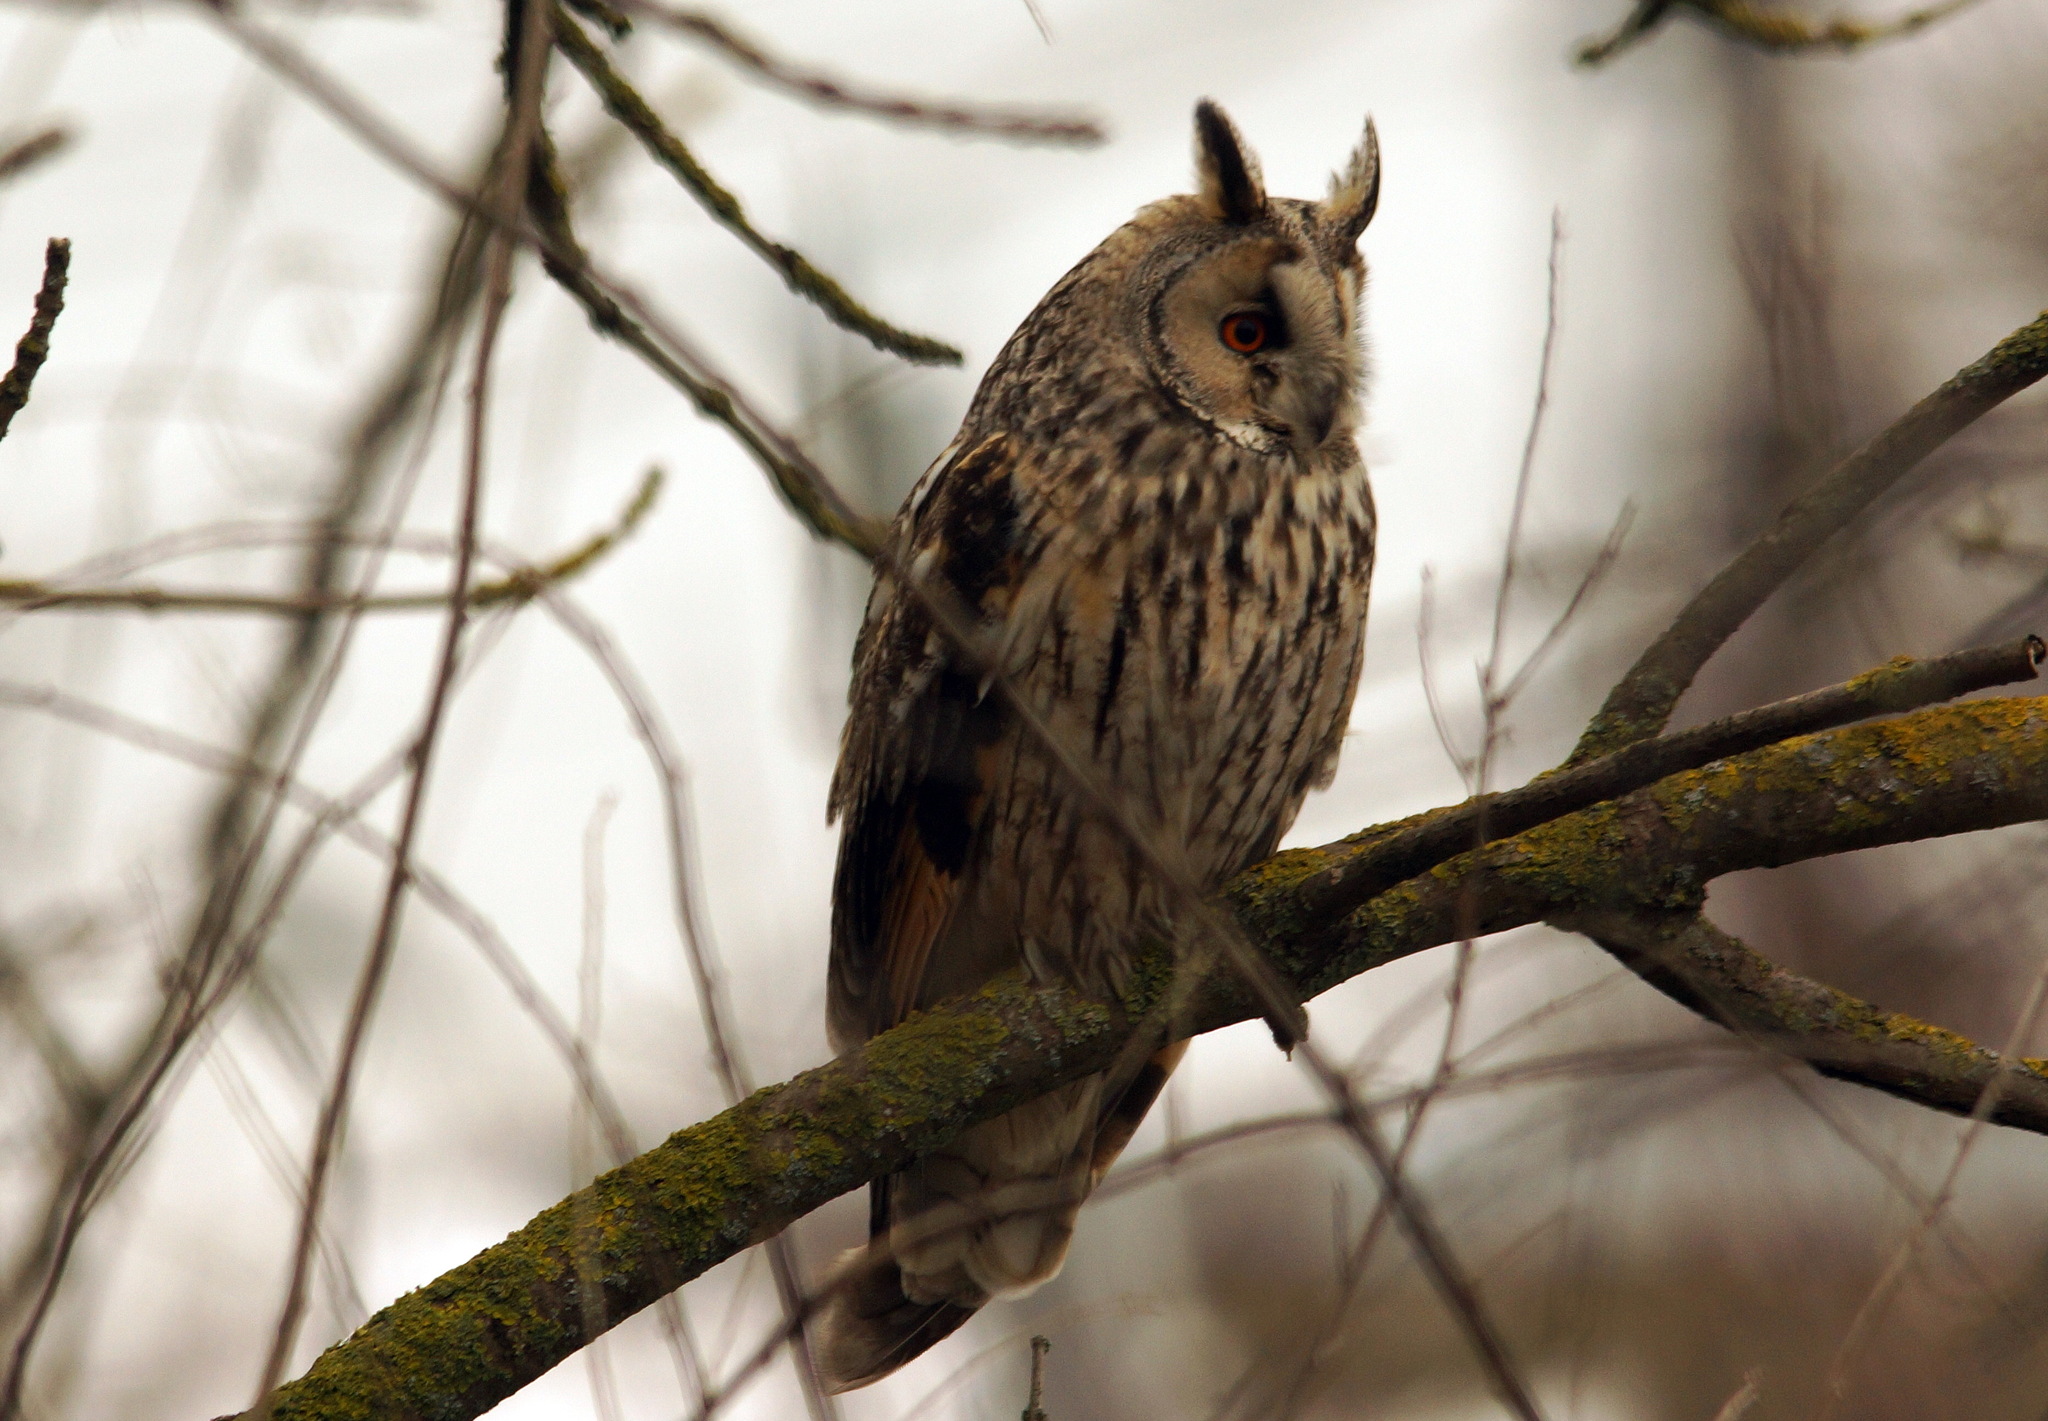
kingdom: Animalia
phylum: Chordata
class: Aves
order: Strigiformes
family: Strigidae
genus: Asio
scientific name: Asio otus
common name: Long-eared owl
